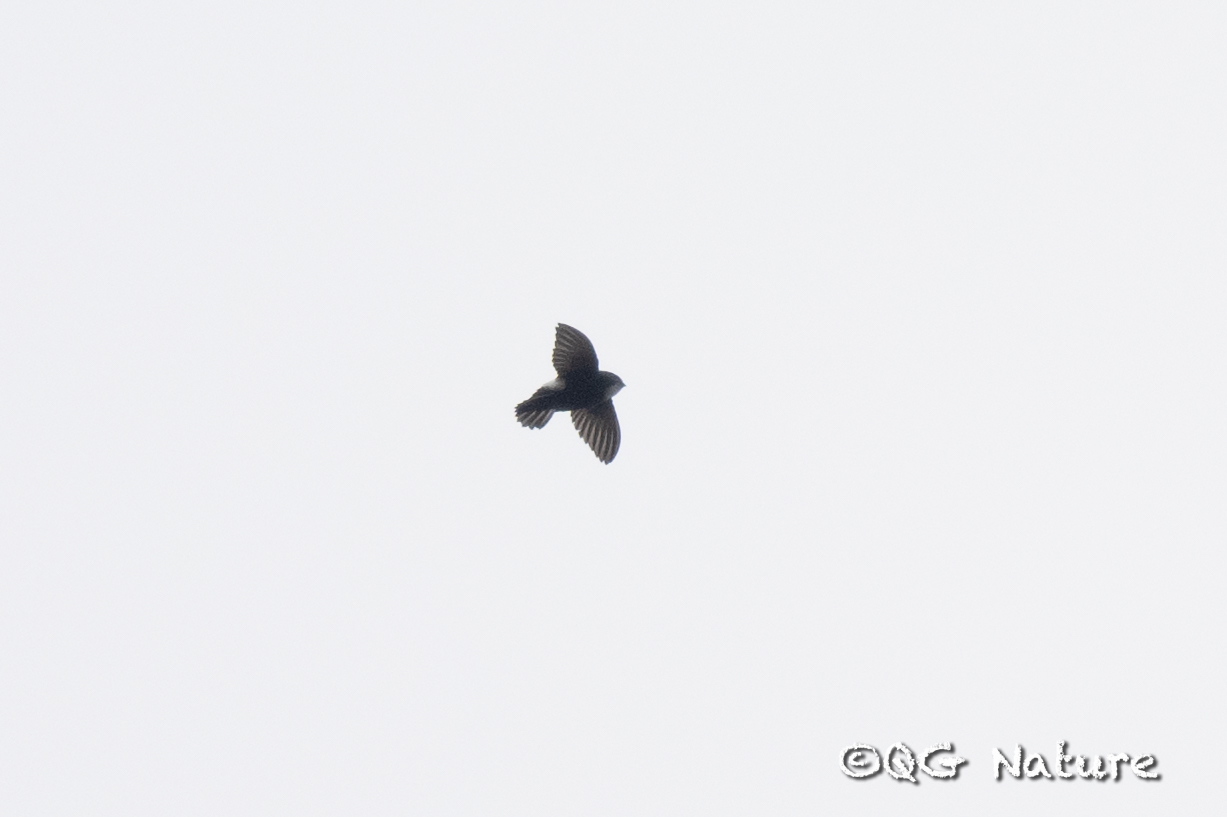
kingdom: Animalia
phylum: Chordata
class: Aves
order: Apodiformes
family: Apodidae
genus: Apus
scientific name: Apus nipalensis
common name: House swift
